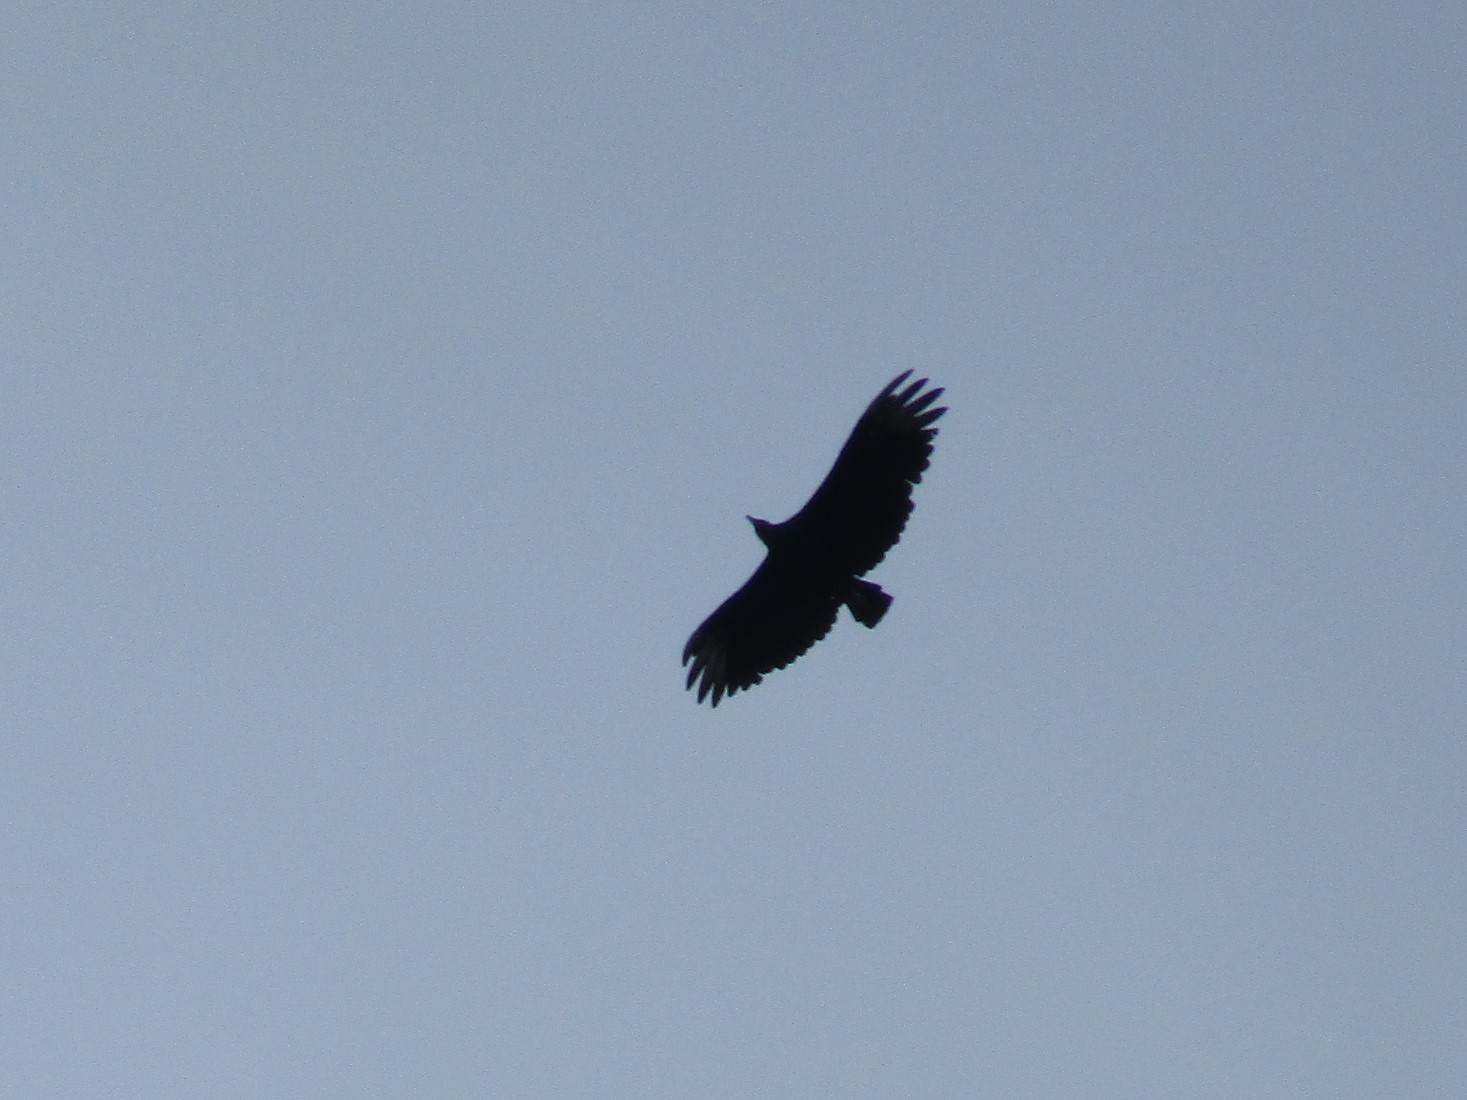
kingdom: Animalia
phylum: Chordata
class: Aves
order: Accipitriformes
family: Cathartidae
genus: Coragyps
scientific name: Coragyps atratus
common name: Black vulture
